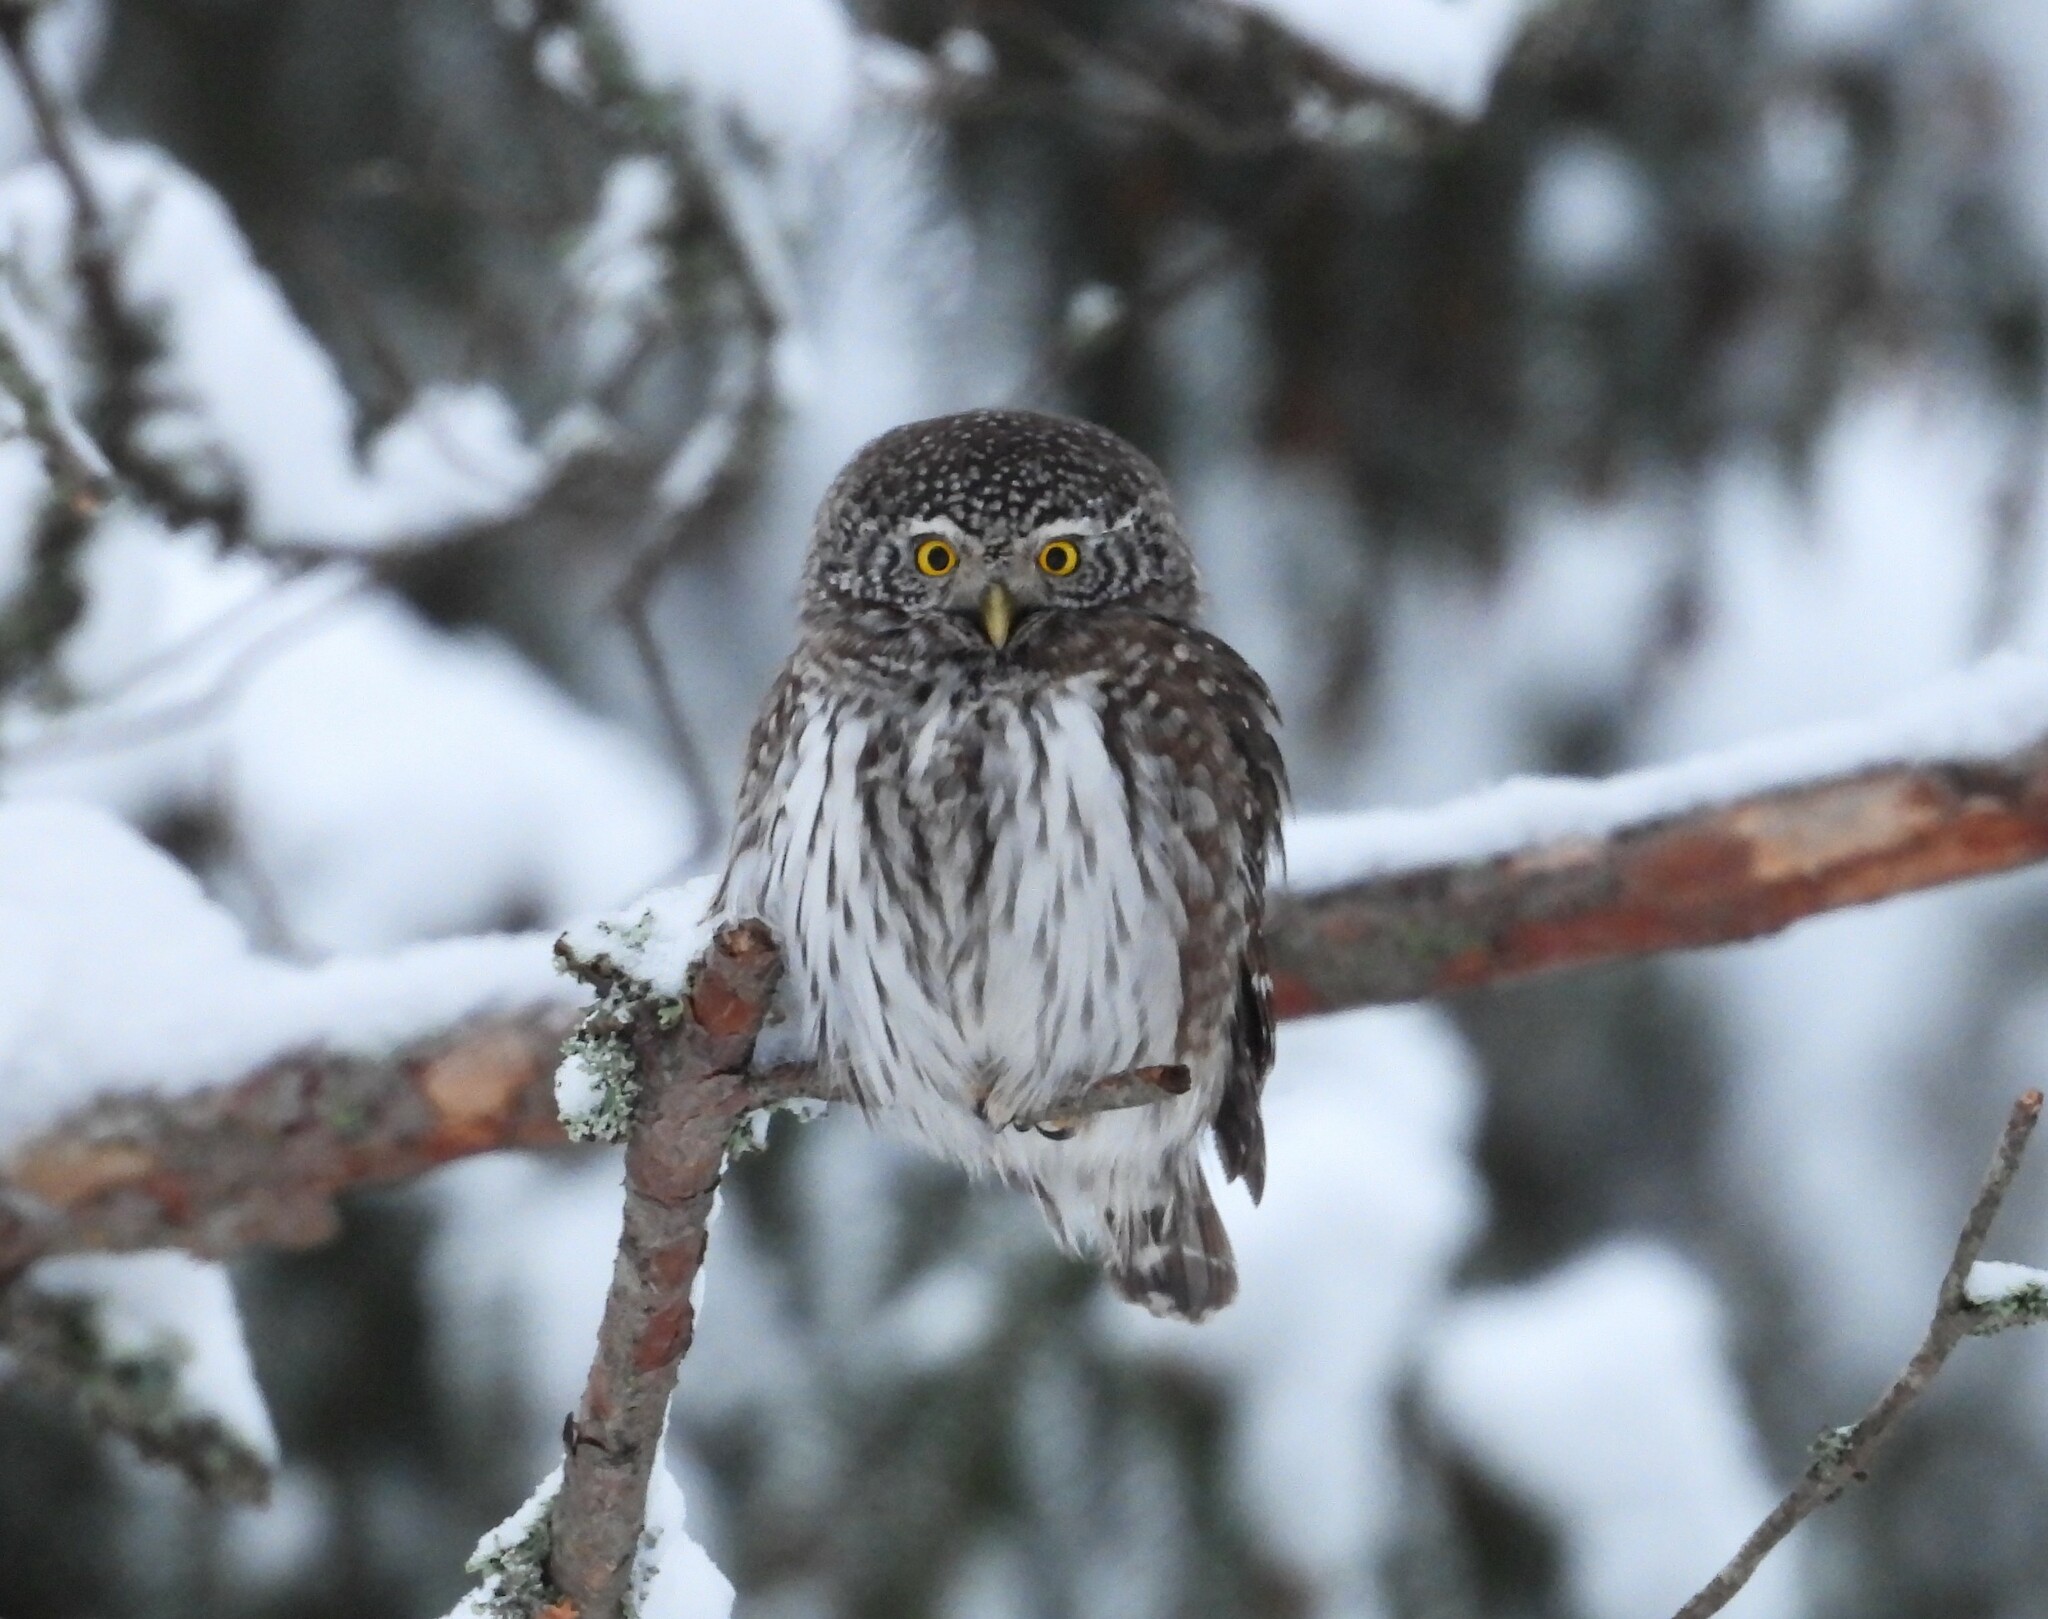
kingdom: Animalia
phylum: Chordata
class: Aves
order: Strigiformes
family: Strigidae
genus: Glaucidium
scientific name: Glaucidium passerinum
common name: Eurasian pygmy owl
